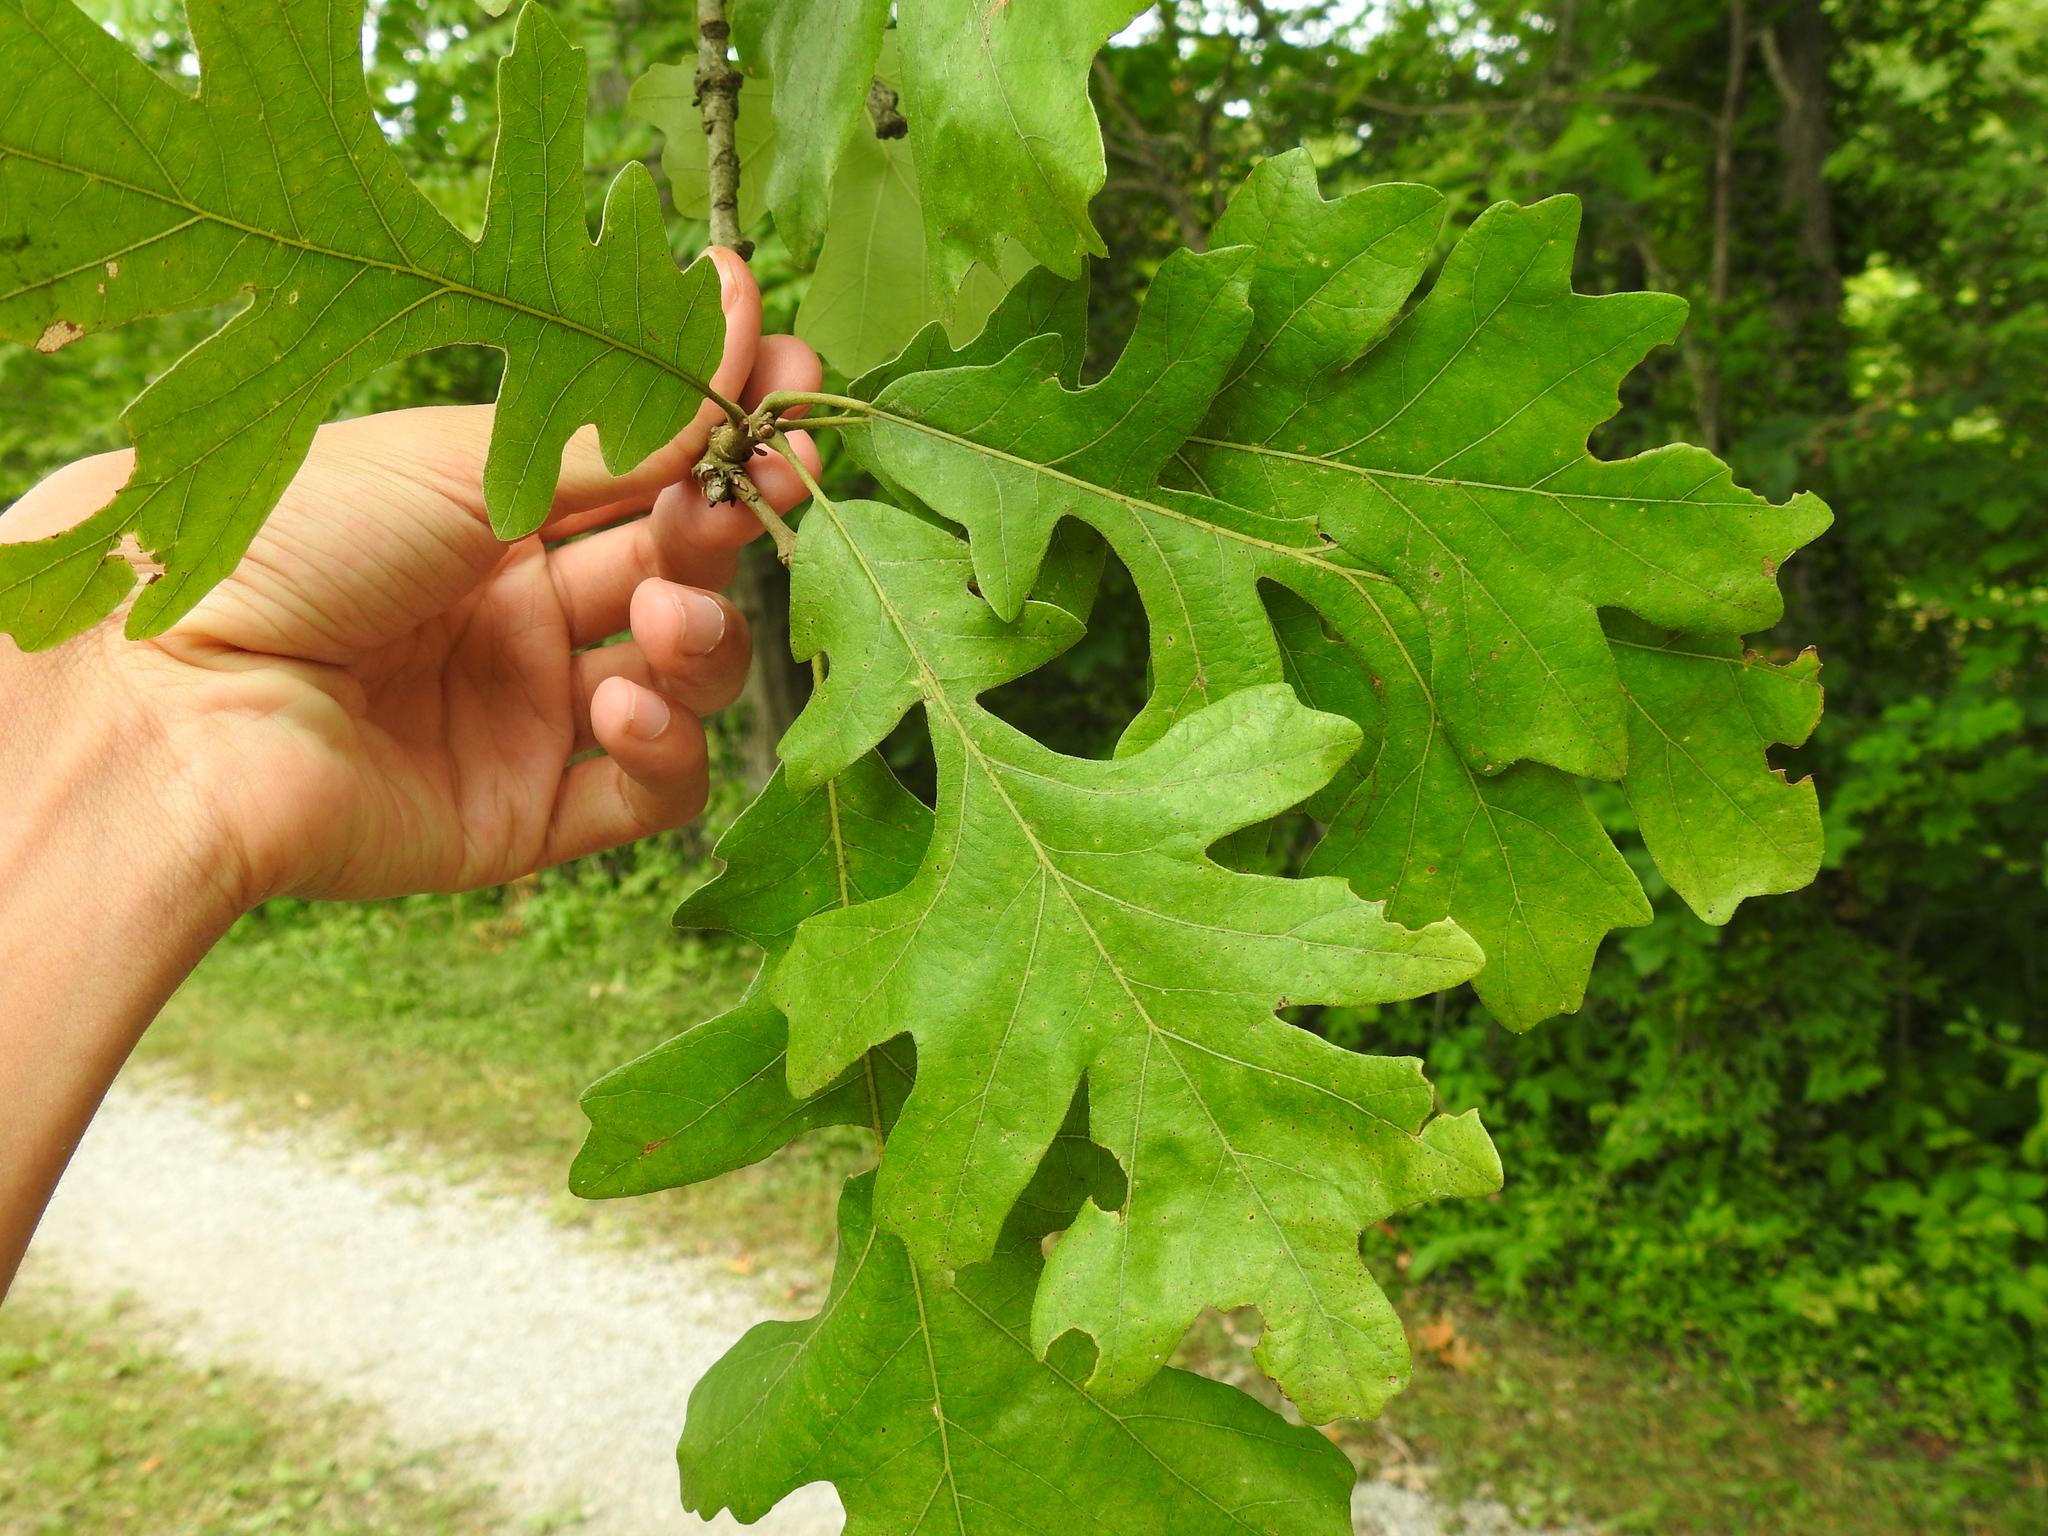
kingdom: Plantae
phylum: Tracheophyta
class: Magnoliopsida
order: Fagales
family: Fagaceae
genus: Quercus
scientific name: Quercus macrocarpa
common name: Bur oak
